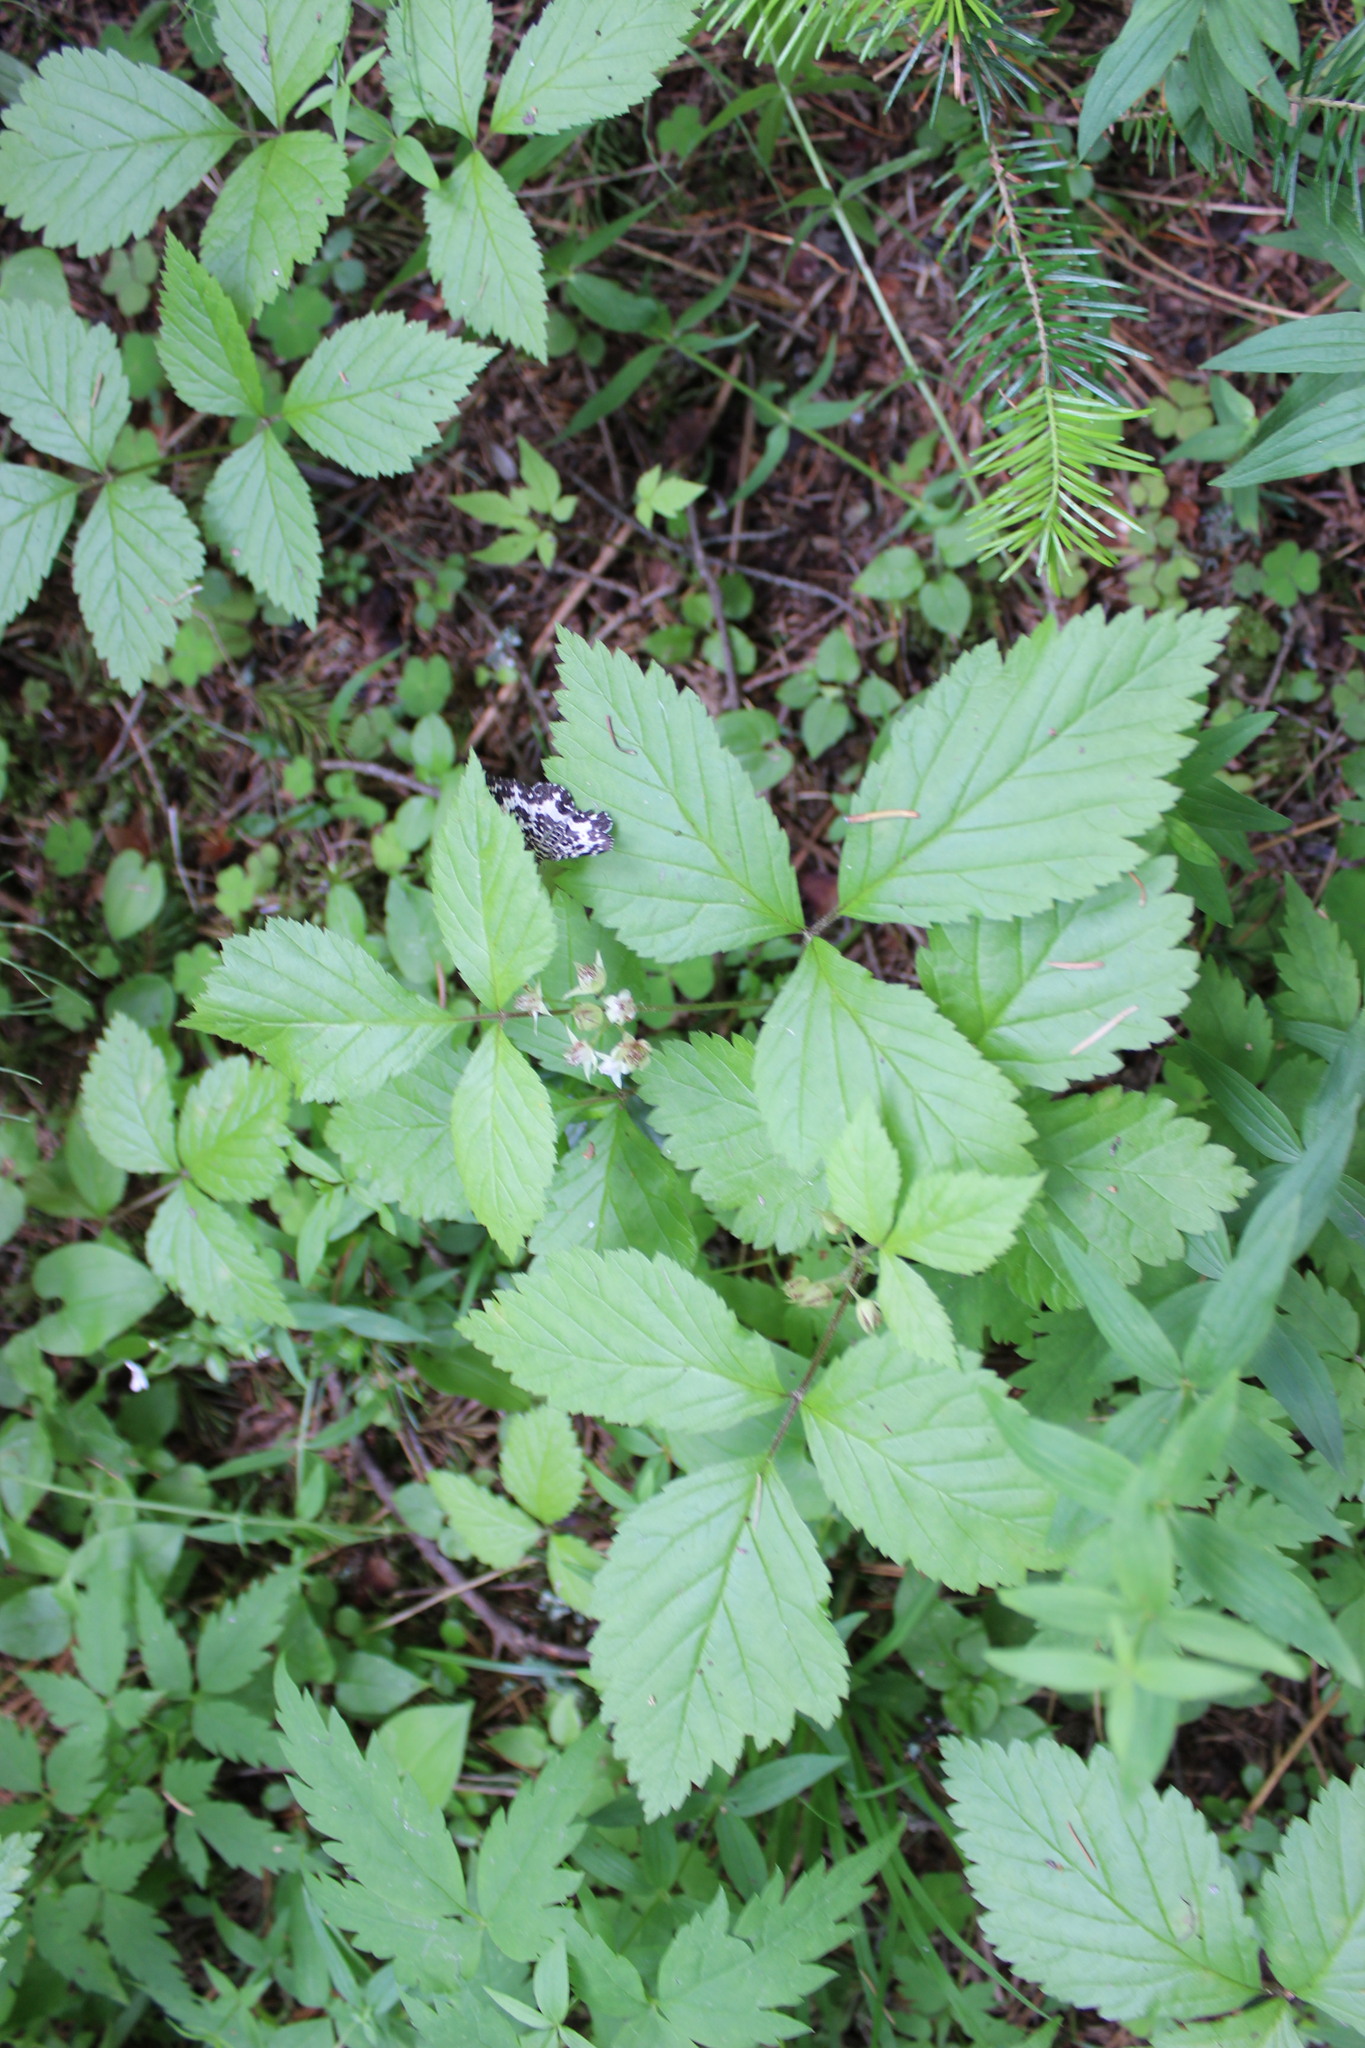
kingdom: Plantae
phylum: Tracheophyta
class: Magnoliopsida
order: Rosales
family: Rosaceae
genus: Rubus
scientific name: Rubus saxatilis
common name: Stone bramble
